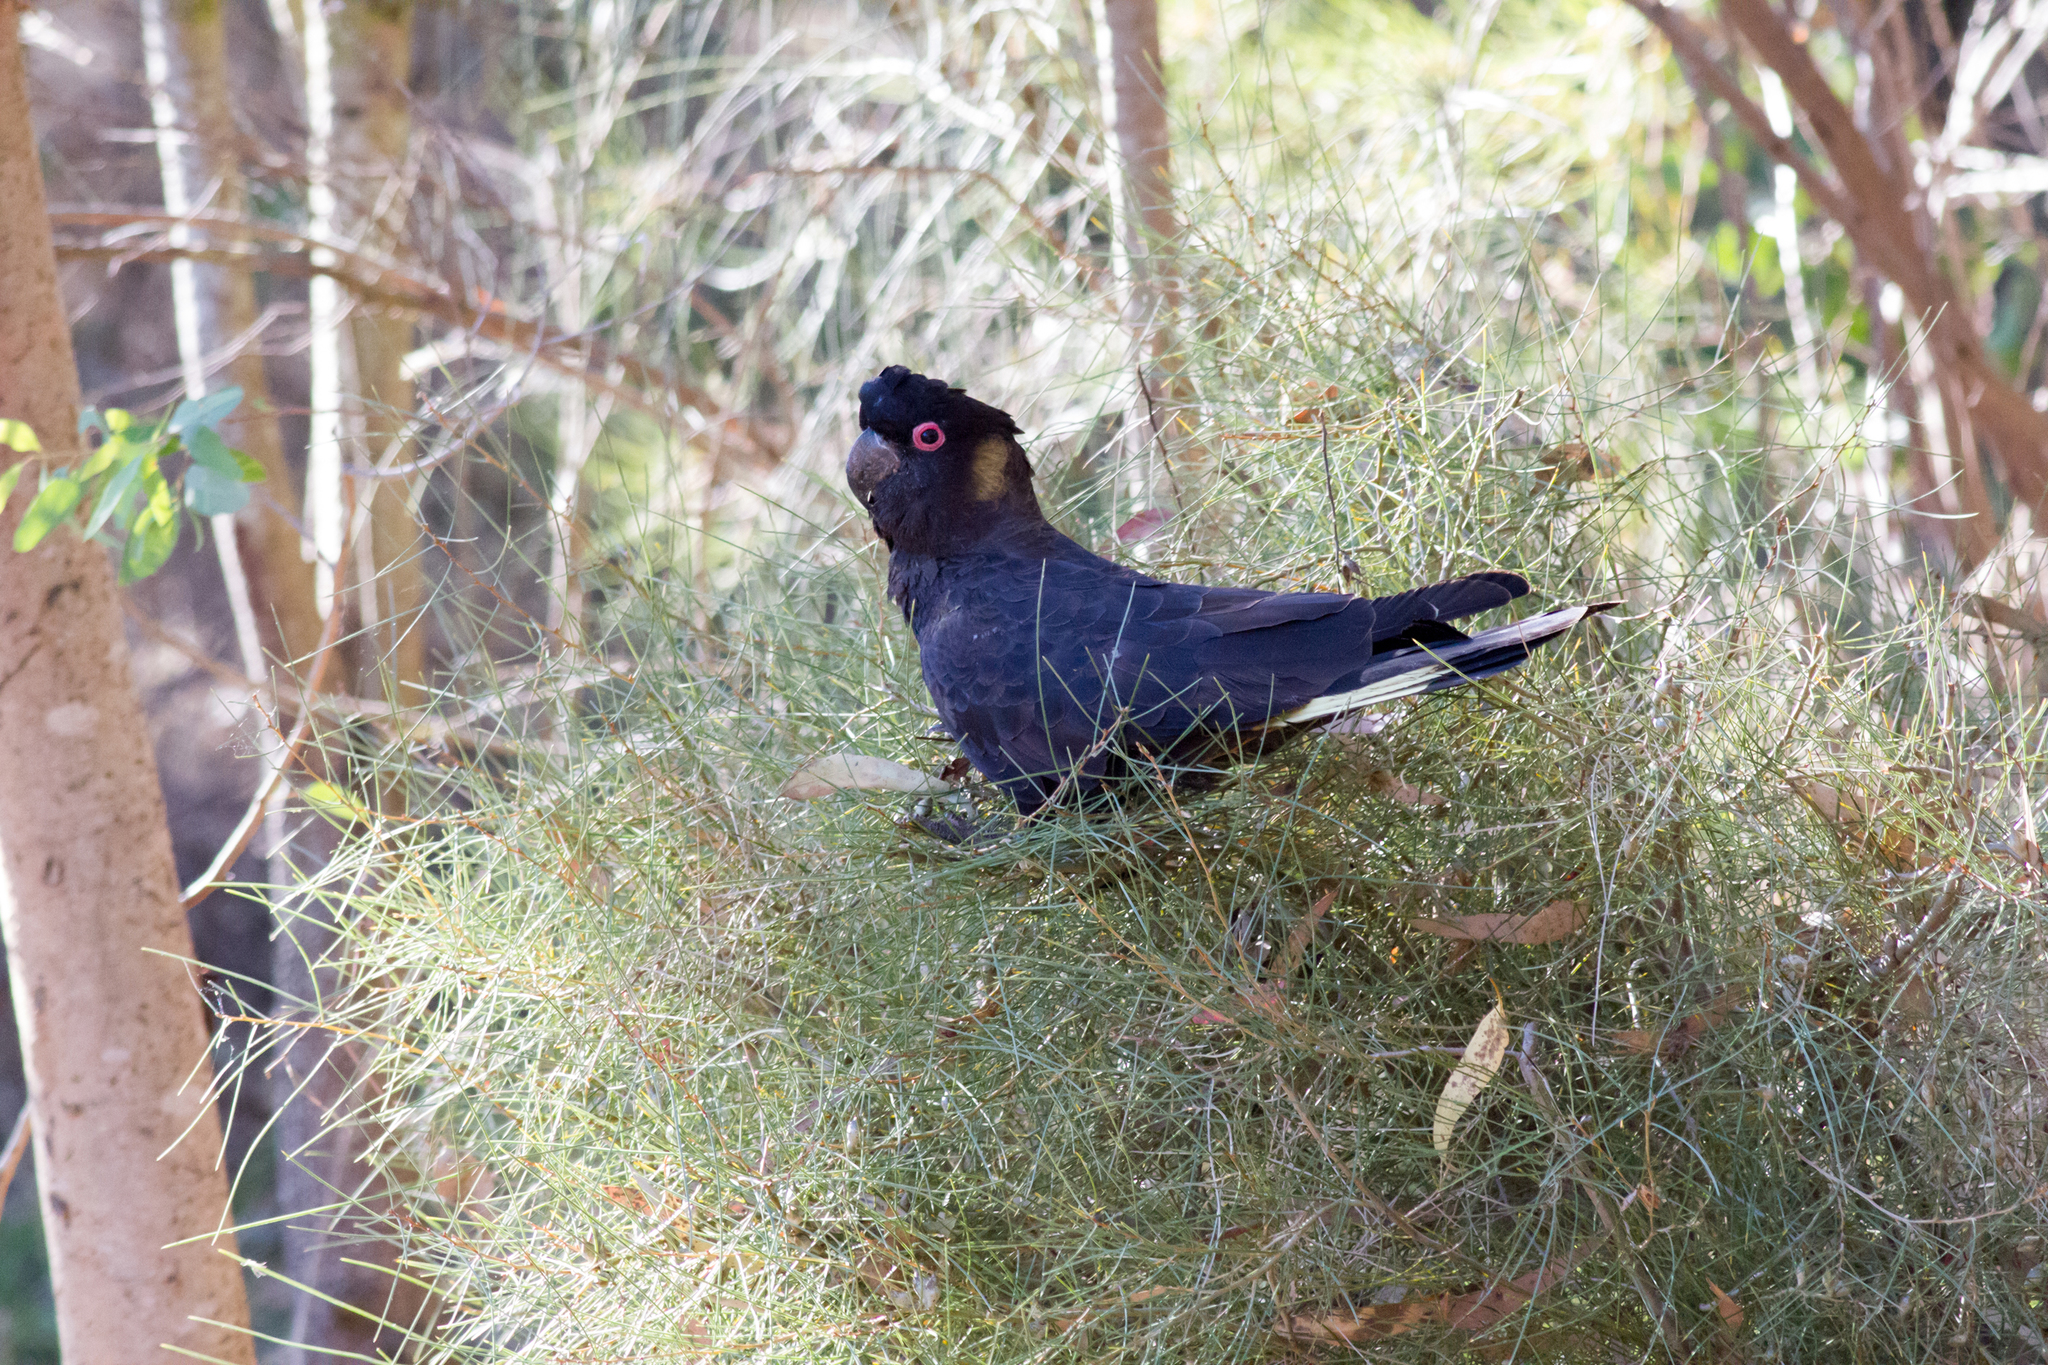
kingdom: Animalia
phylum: Chordata
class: Aves
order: Psittaciformes
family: Cacatuidae
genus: Zanda
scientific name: Zanda funerea
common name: Yellow-tailed black-cockatoo
